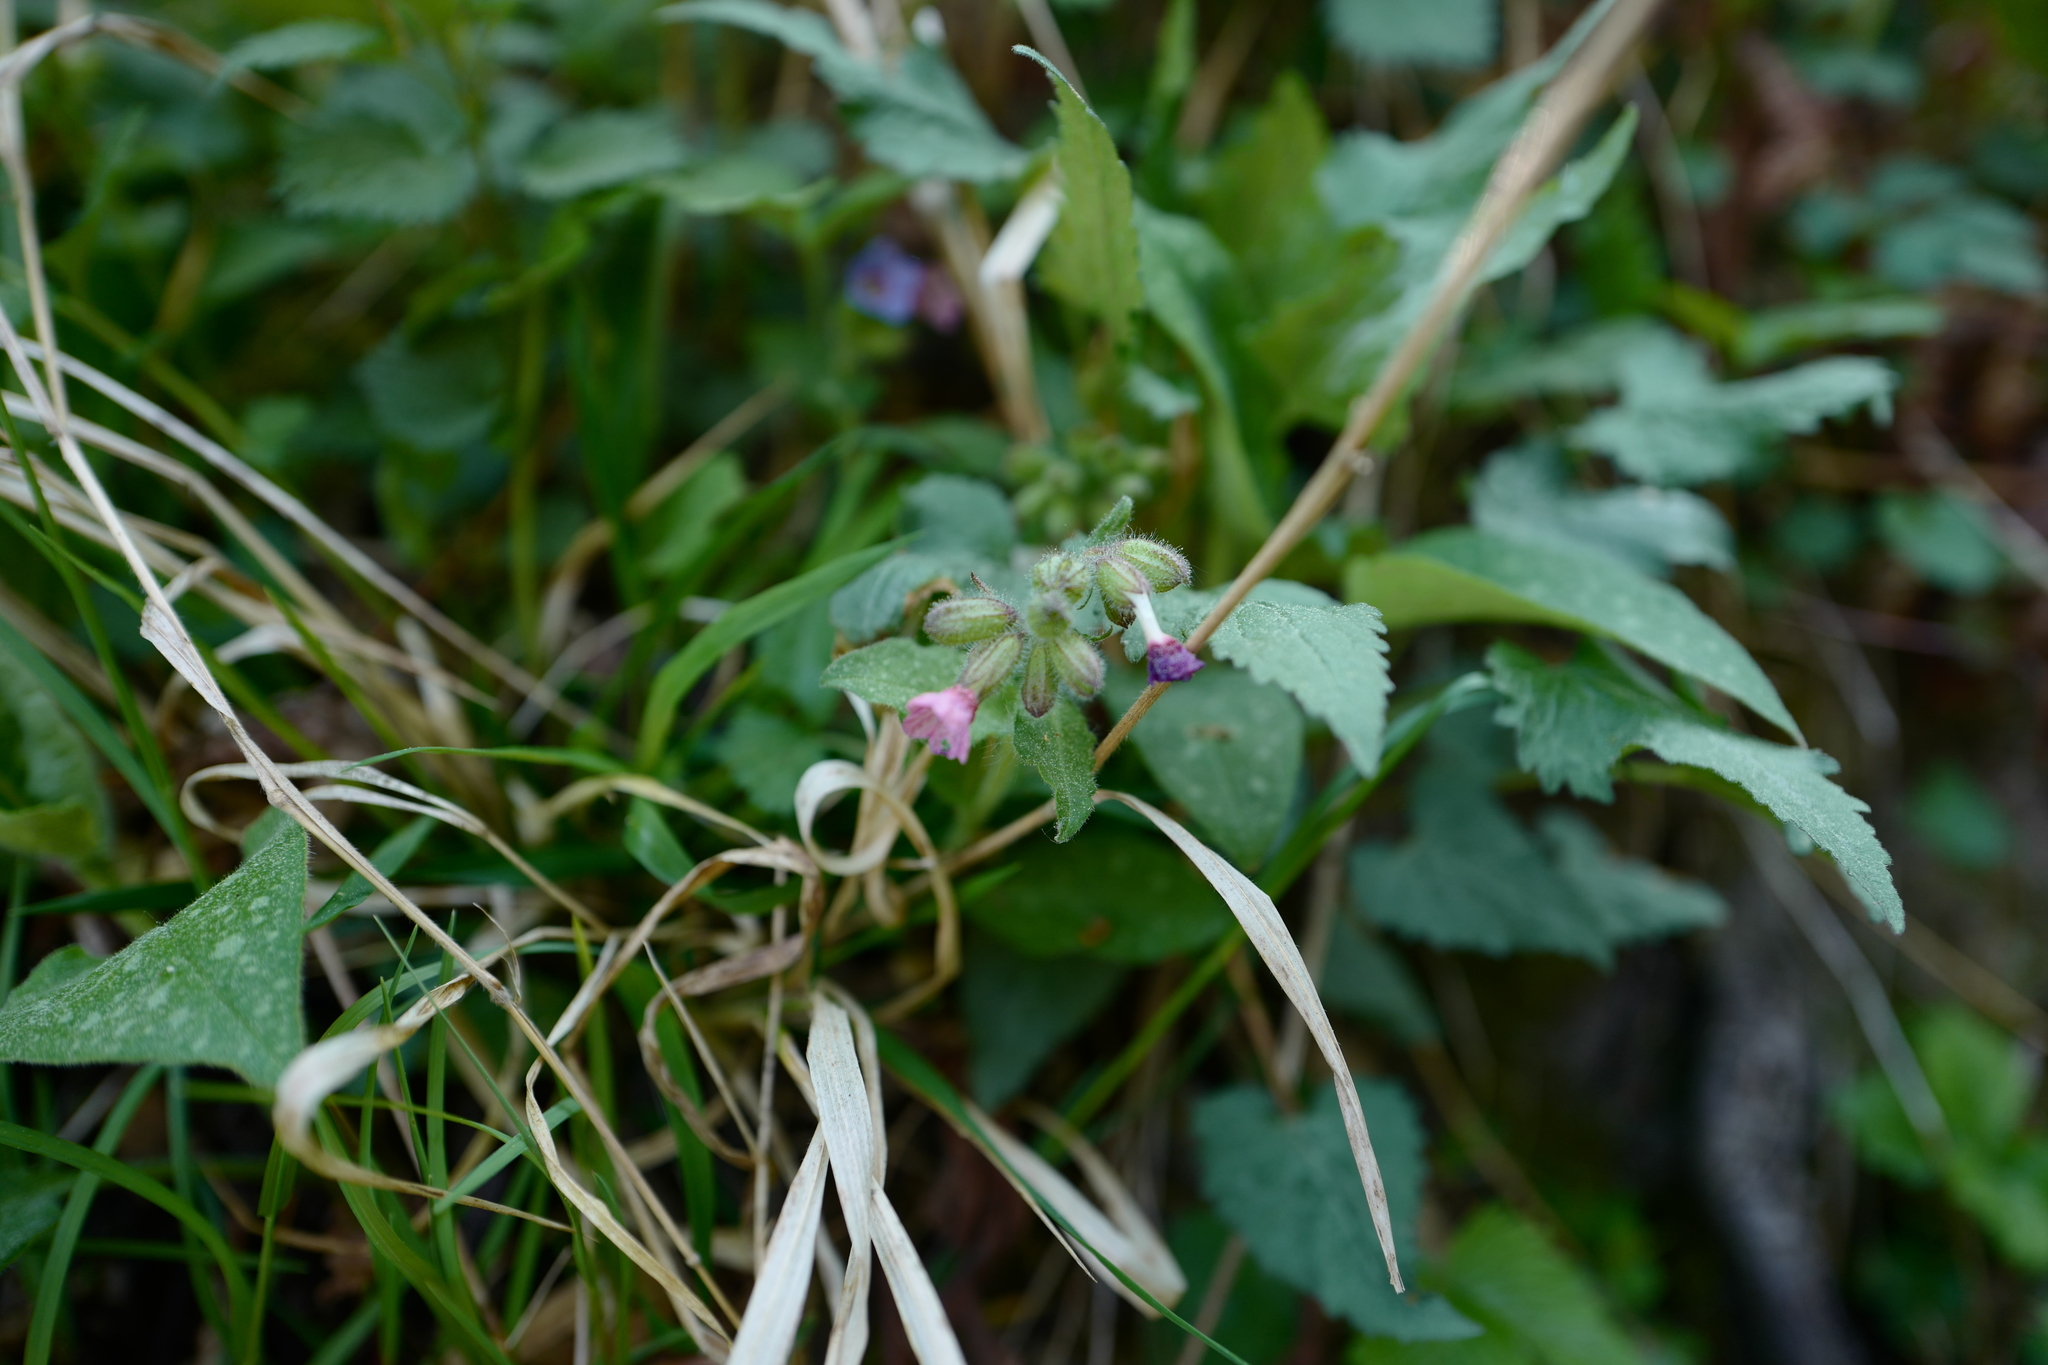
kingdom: Plantae
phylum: Tracheophyta
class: Magnoliopsida
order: Boraginales
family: Boraginaceae
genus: Pulmonaria
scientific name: Pulmonaria officinalis
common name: Lungwort
